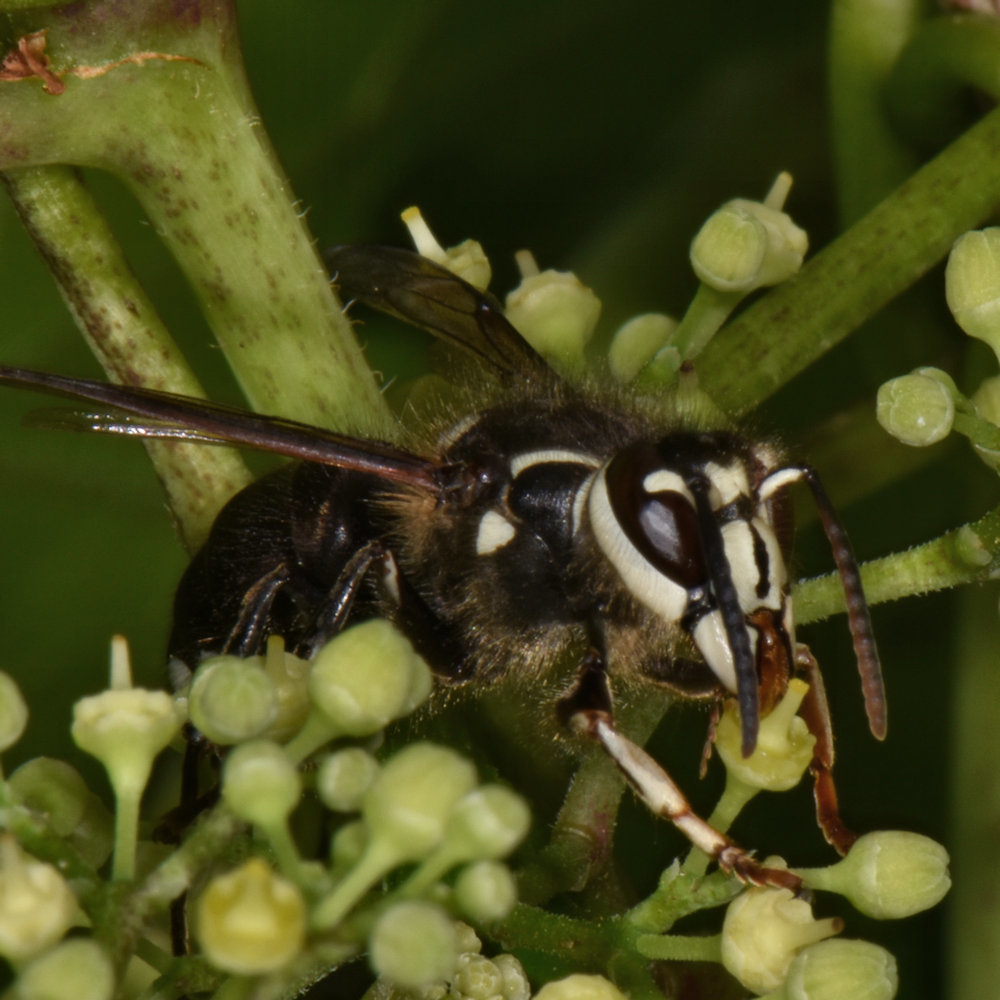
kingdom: Animalia
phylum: Arthropoda
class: Insecta
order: Hymenoptera
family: Vespidae
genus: Dolichovespula
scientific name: Dolichovespula maculata
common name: Bald-faced hornet
